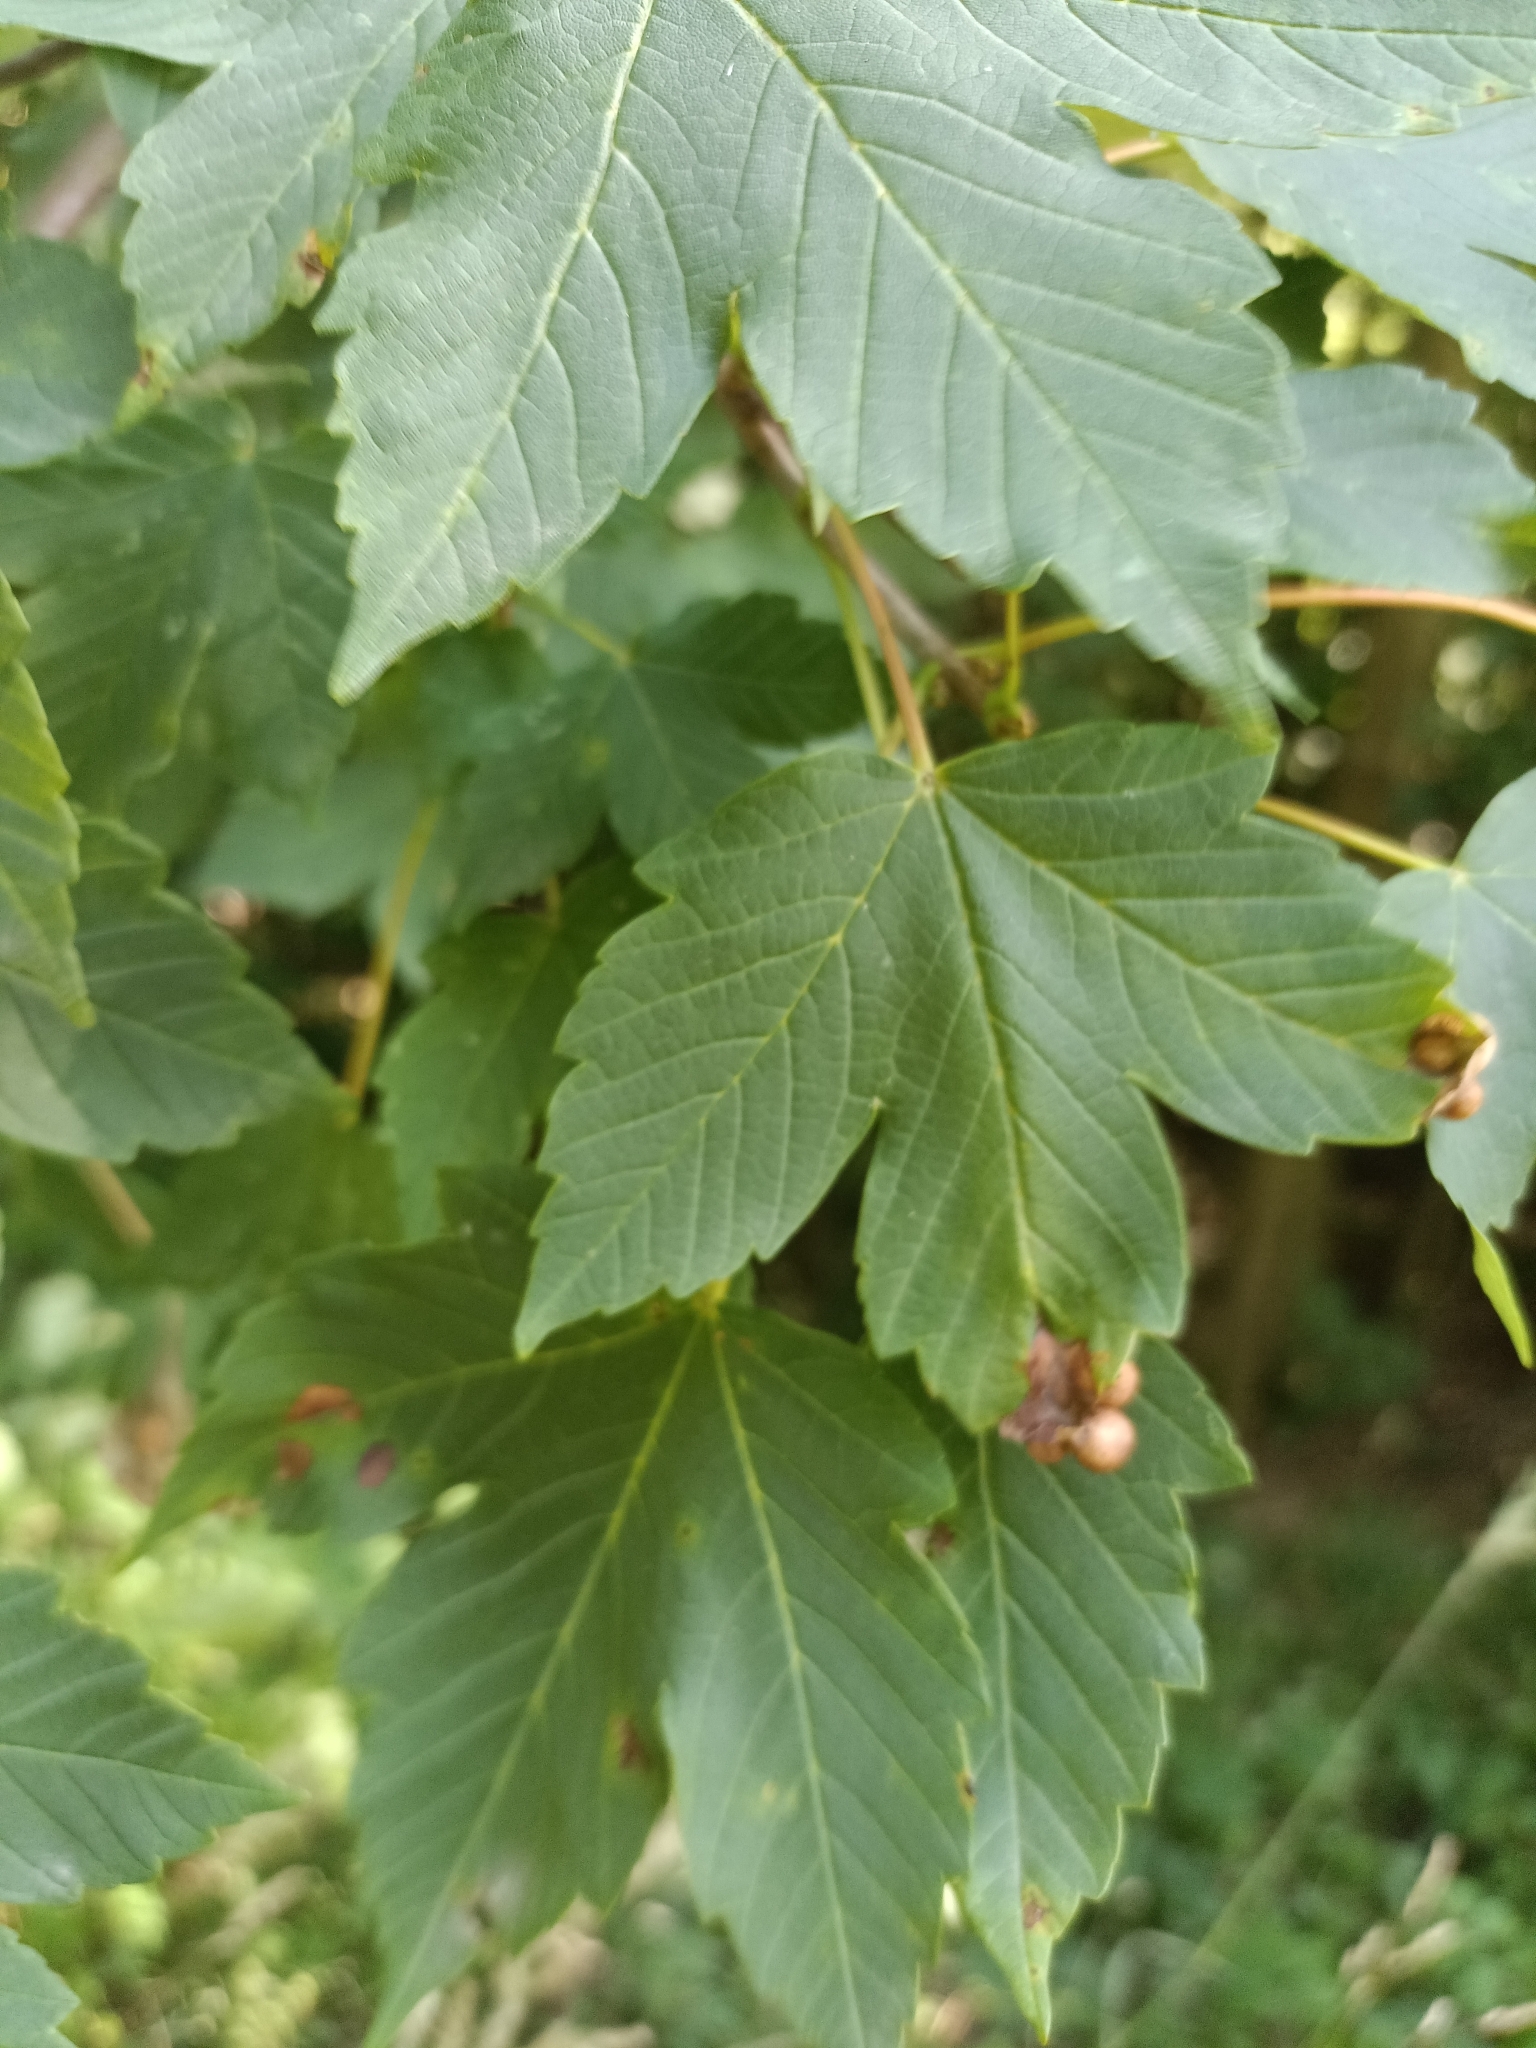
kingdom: Animalia
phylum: Arthropoda
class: Insecta
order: Hymenoptera
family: Cynipidae
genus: Pediaspis
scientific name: Pediaspis aceris
